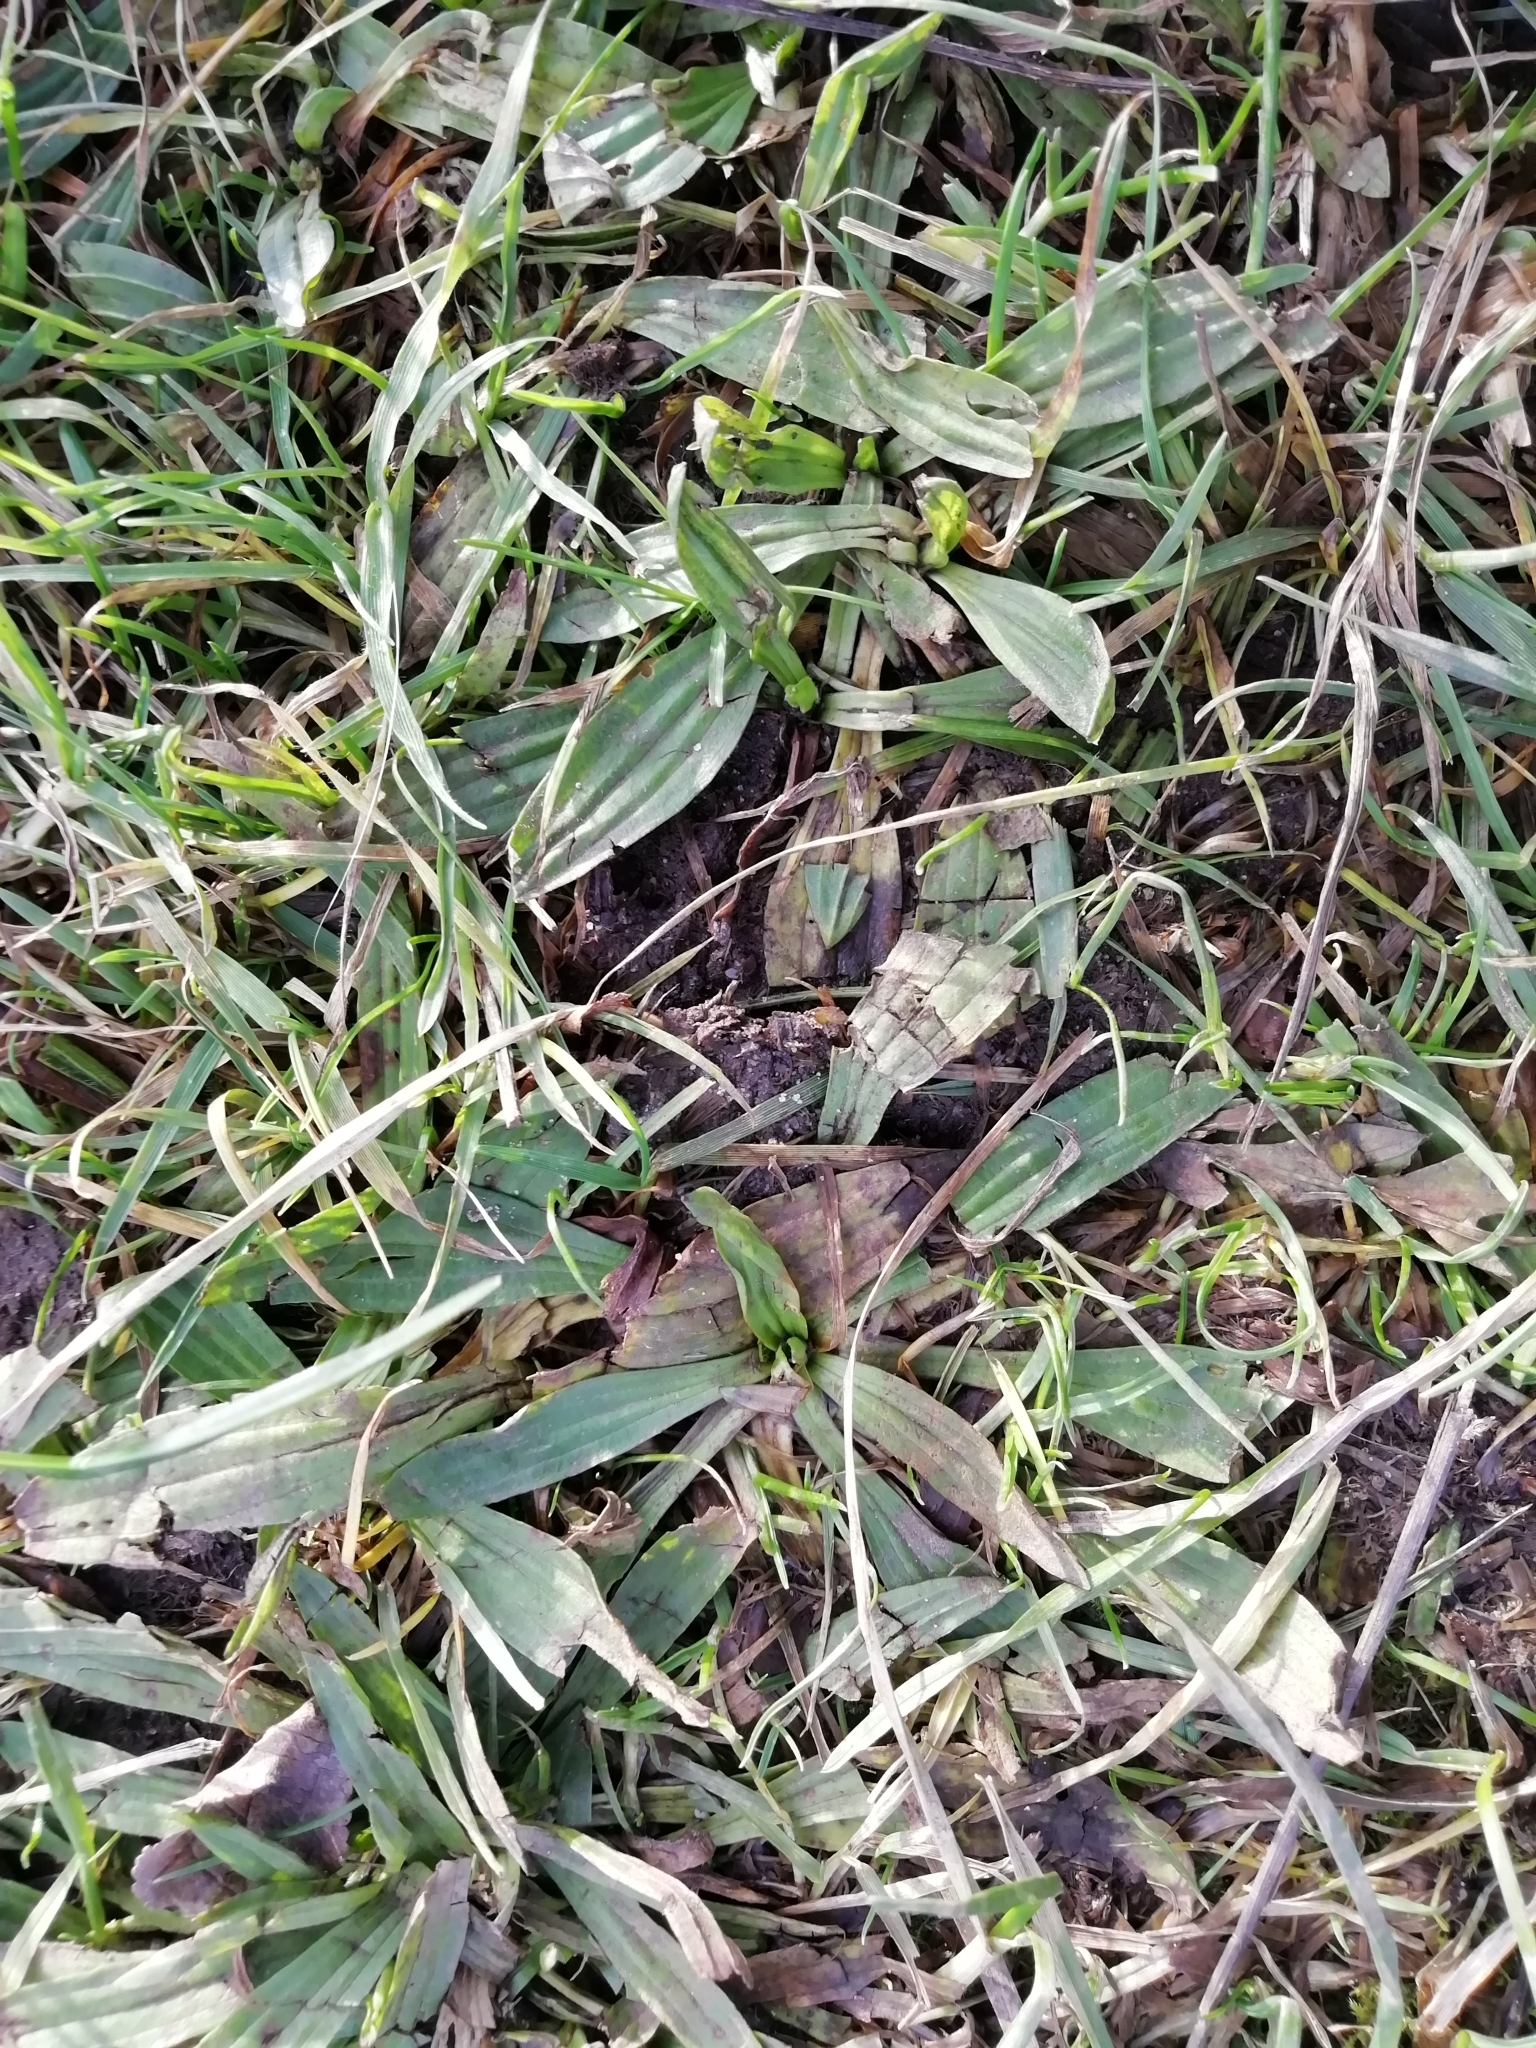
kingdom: Plantae
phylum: Tracheophyta
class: Magnoliopsida
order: Lamiales
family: Plantaginaceae
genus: Plantago
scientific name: Plantago lanceolata
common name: Ribwort plantain
